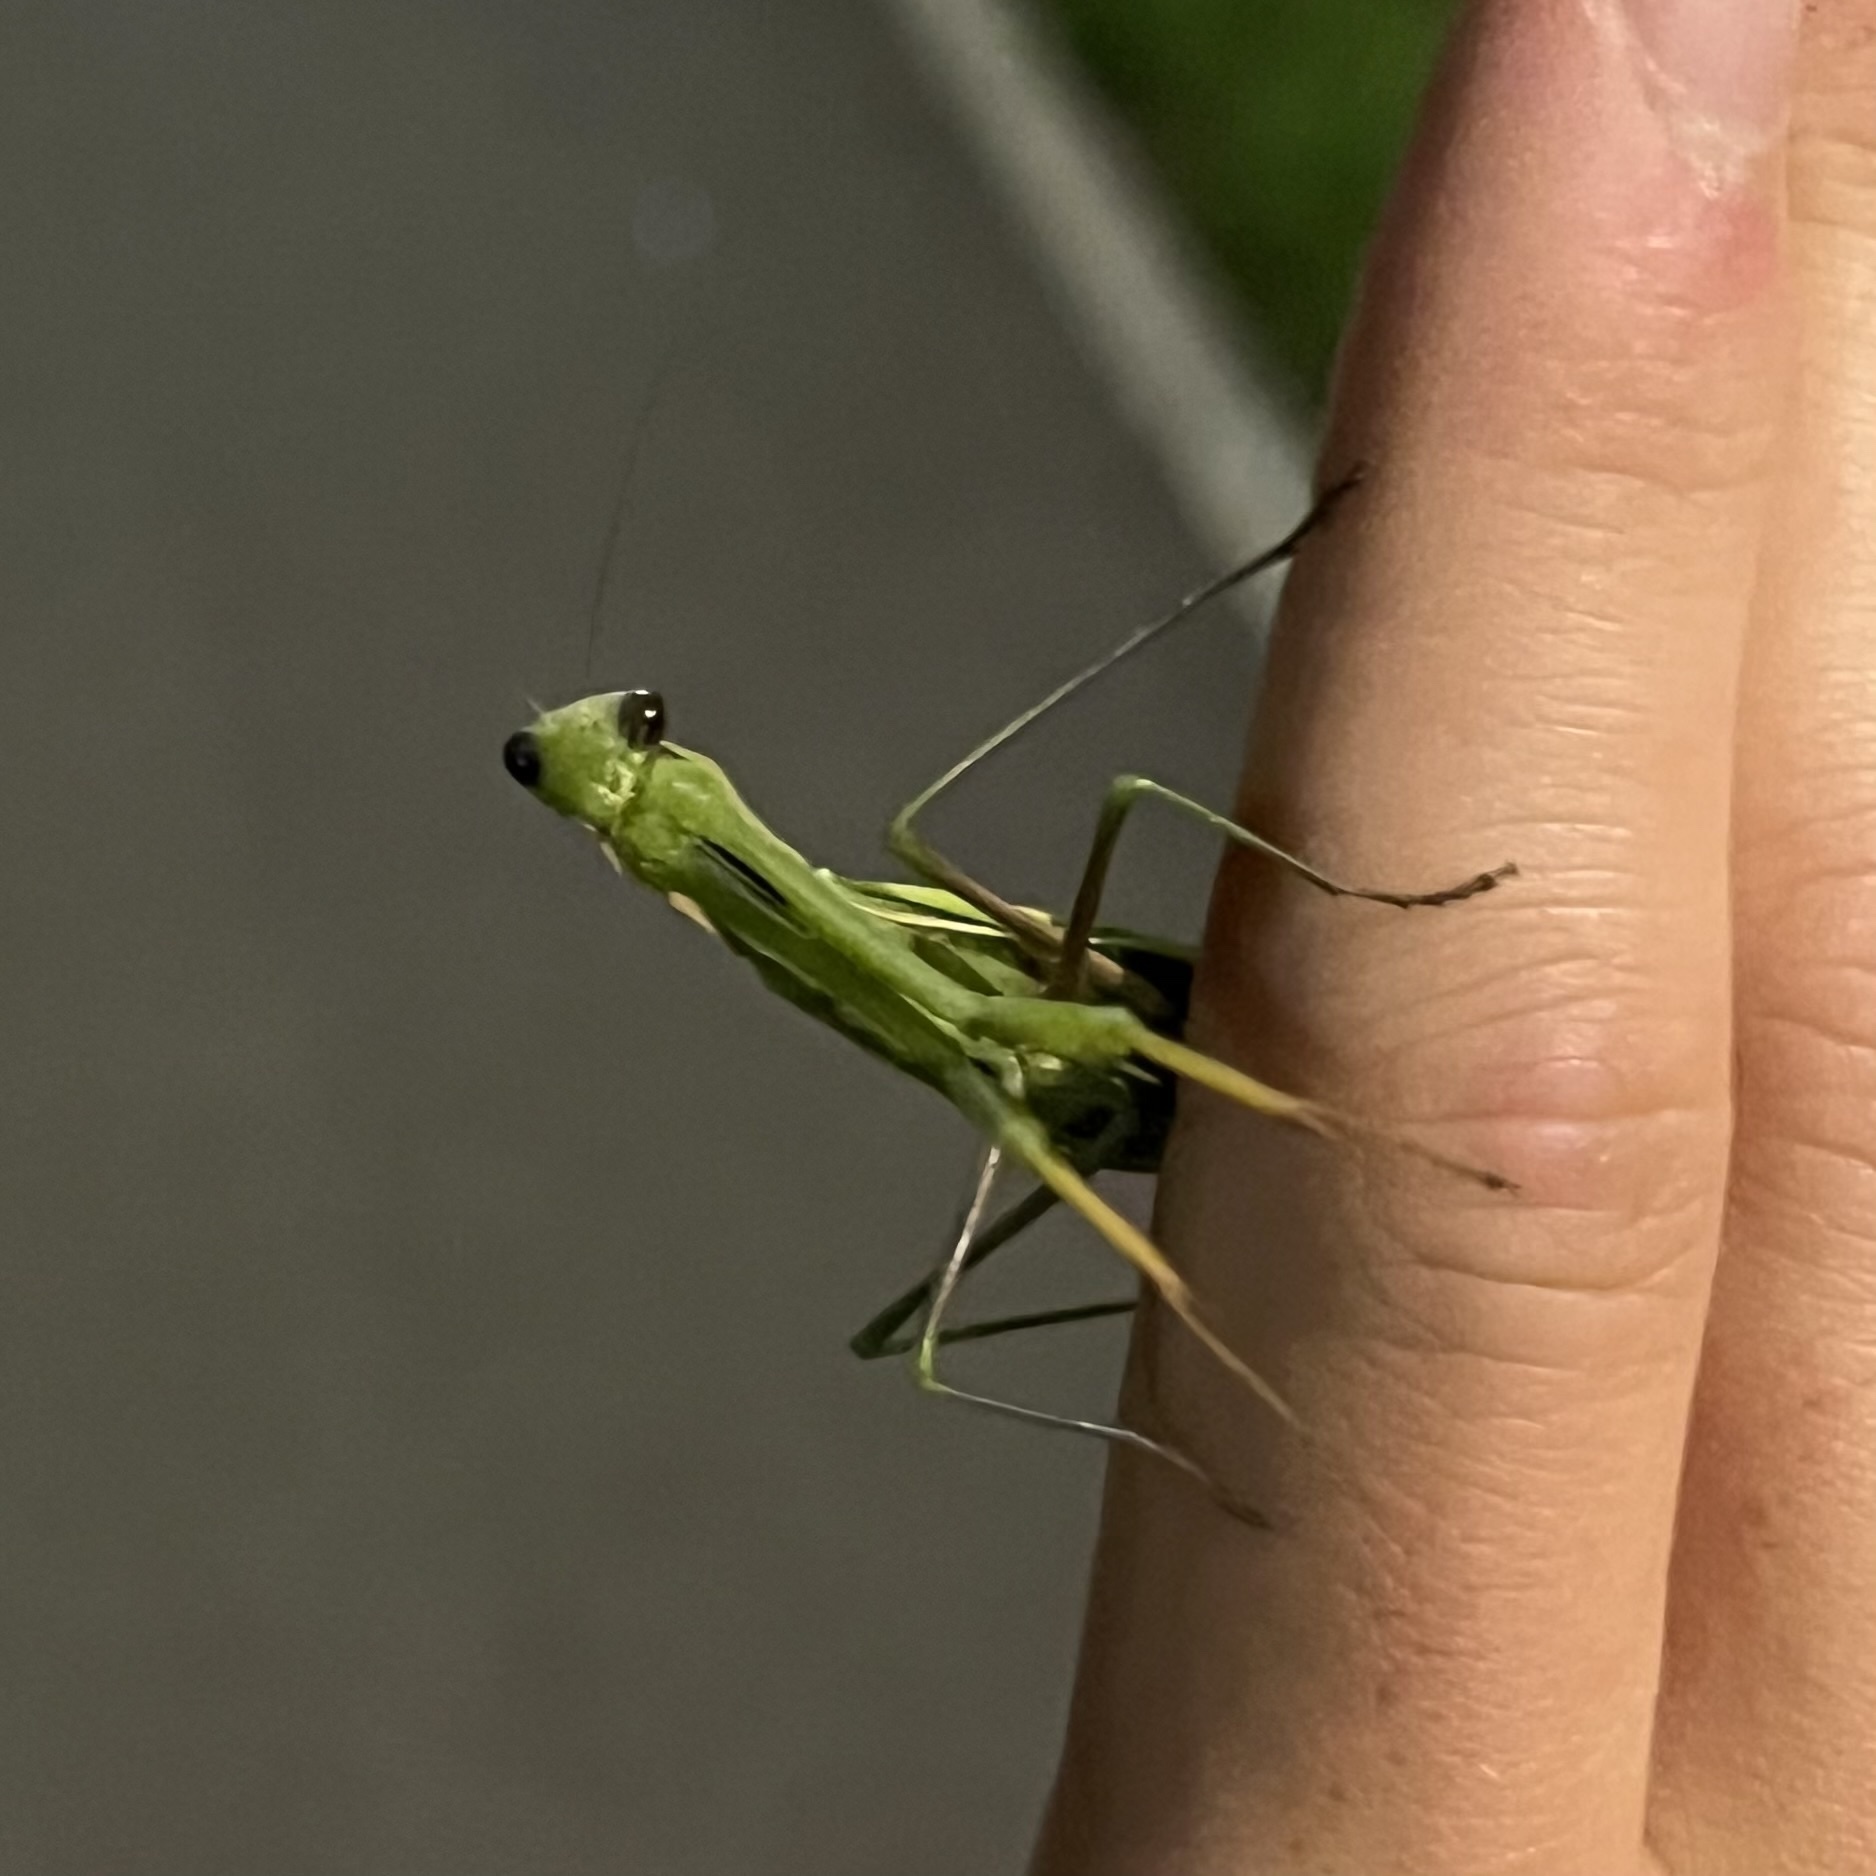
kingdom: Animalia
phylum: Arthropoda
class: Insecta
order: Mantodea
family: Mantidae
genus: Mantis
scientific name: Mantis religiosa
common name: Praying mantis
